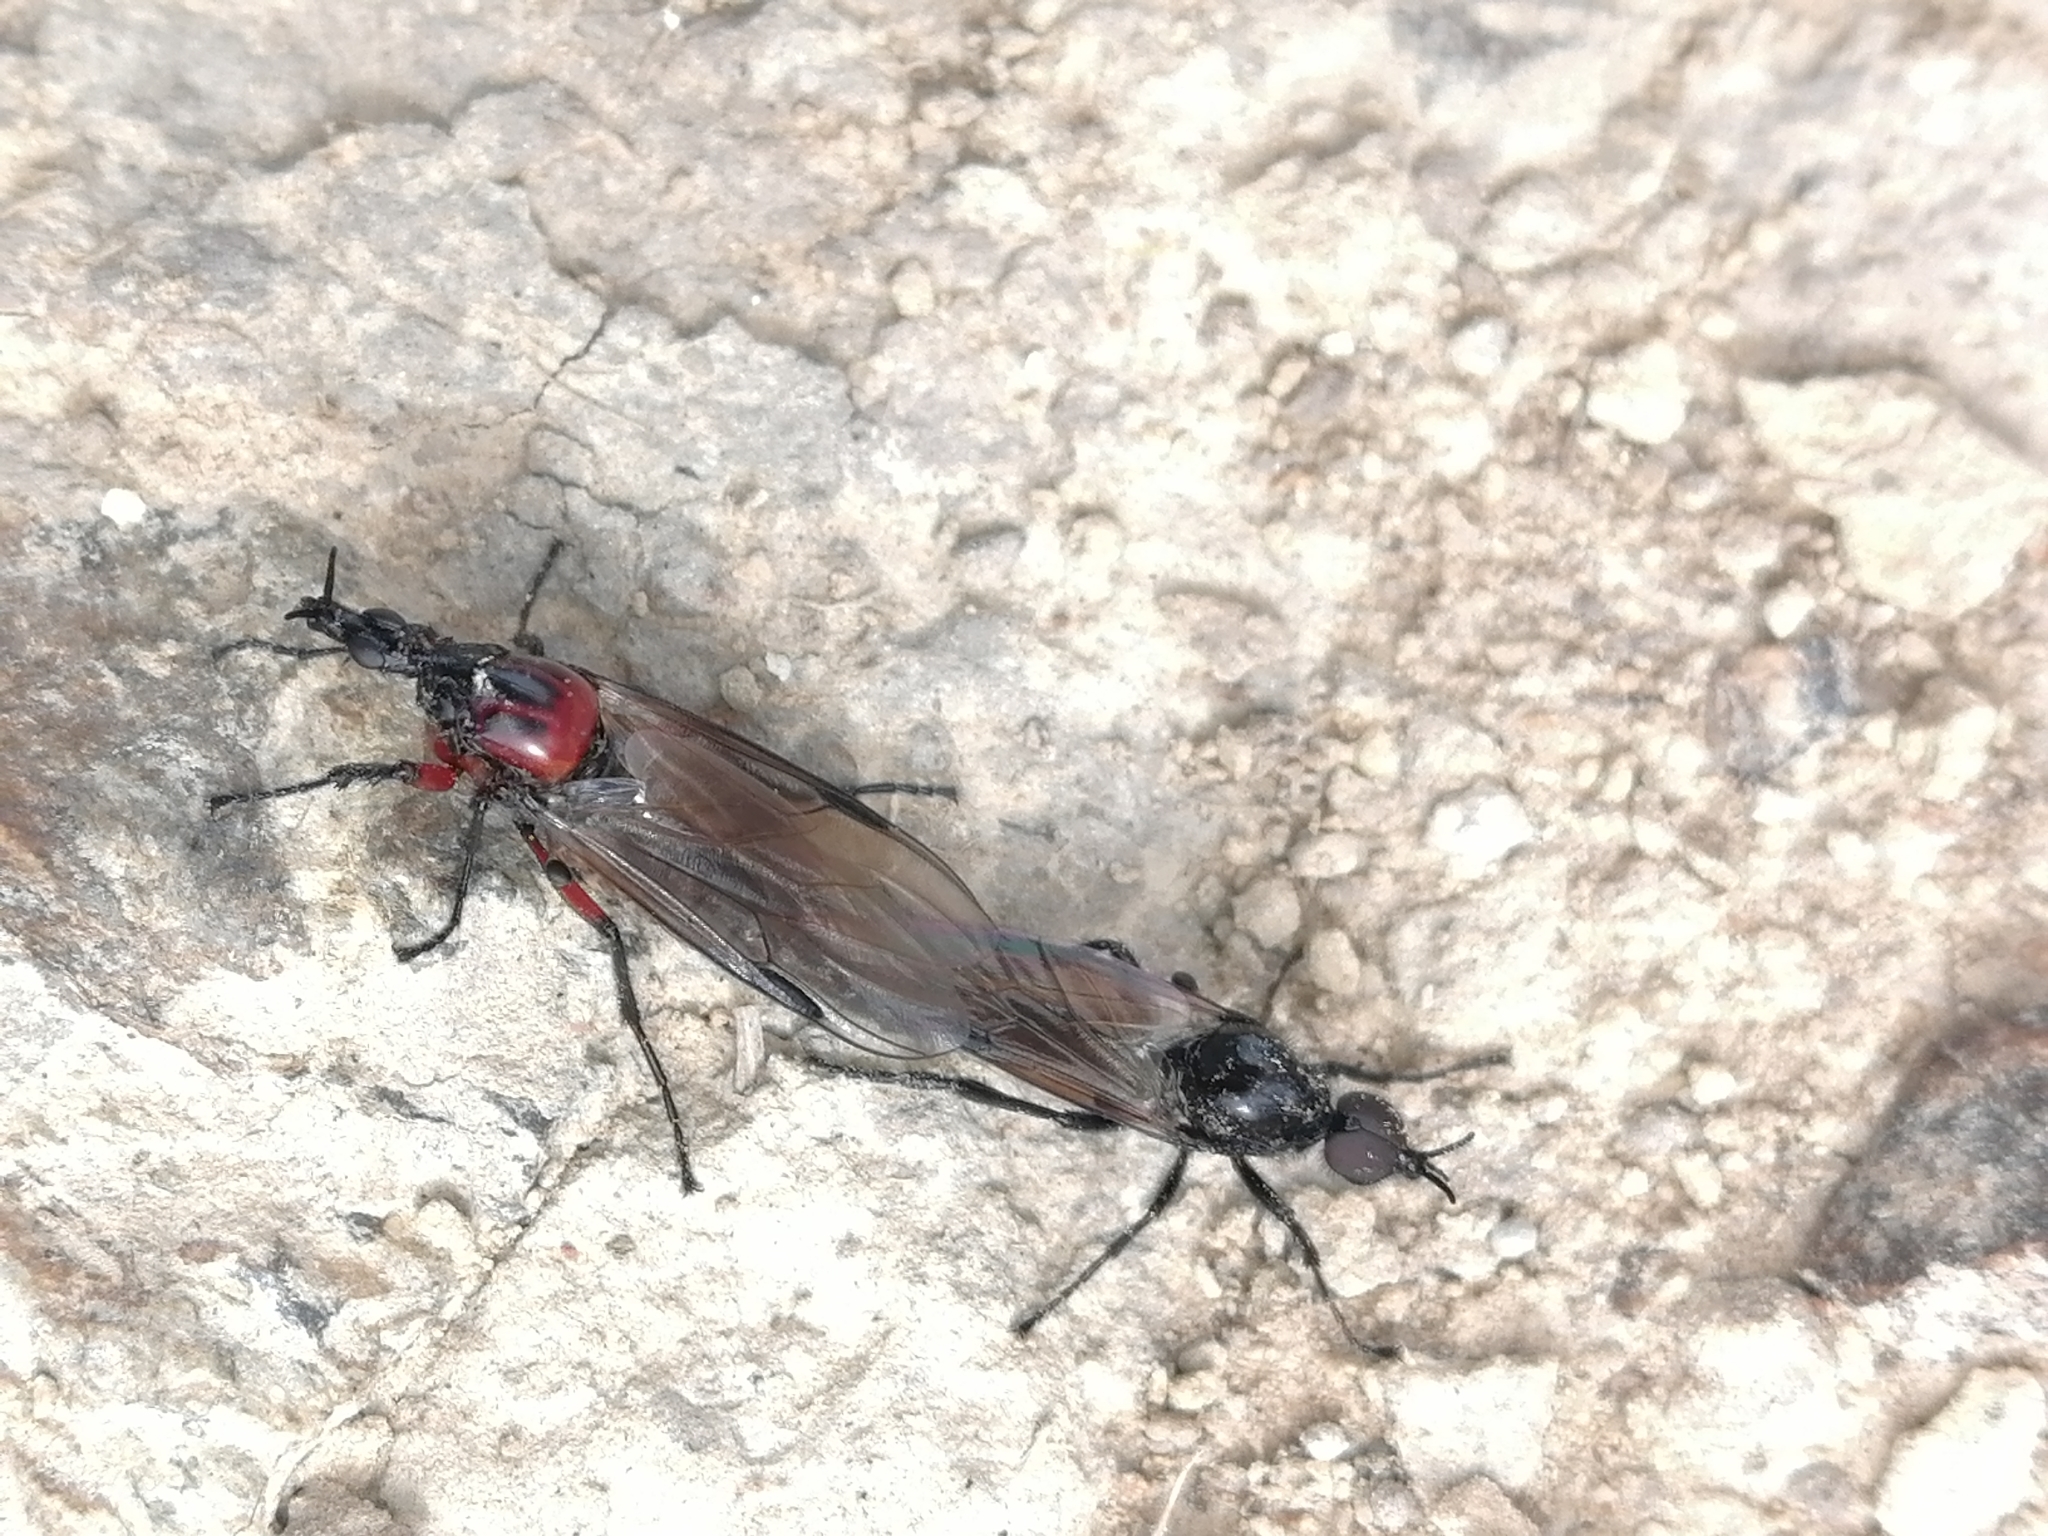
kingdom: Animalia
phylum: Arthropoda
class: Insecta
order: Diptera
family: Bibionidae
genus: Dilophus
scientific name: Dilophus nigrostigma
